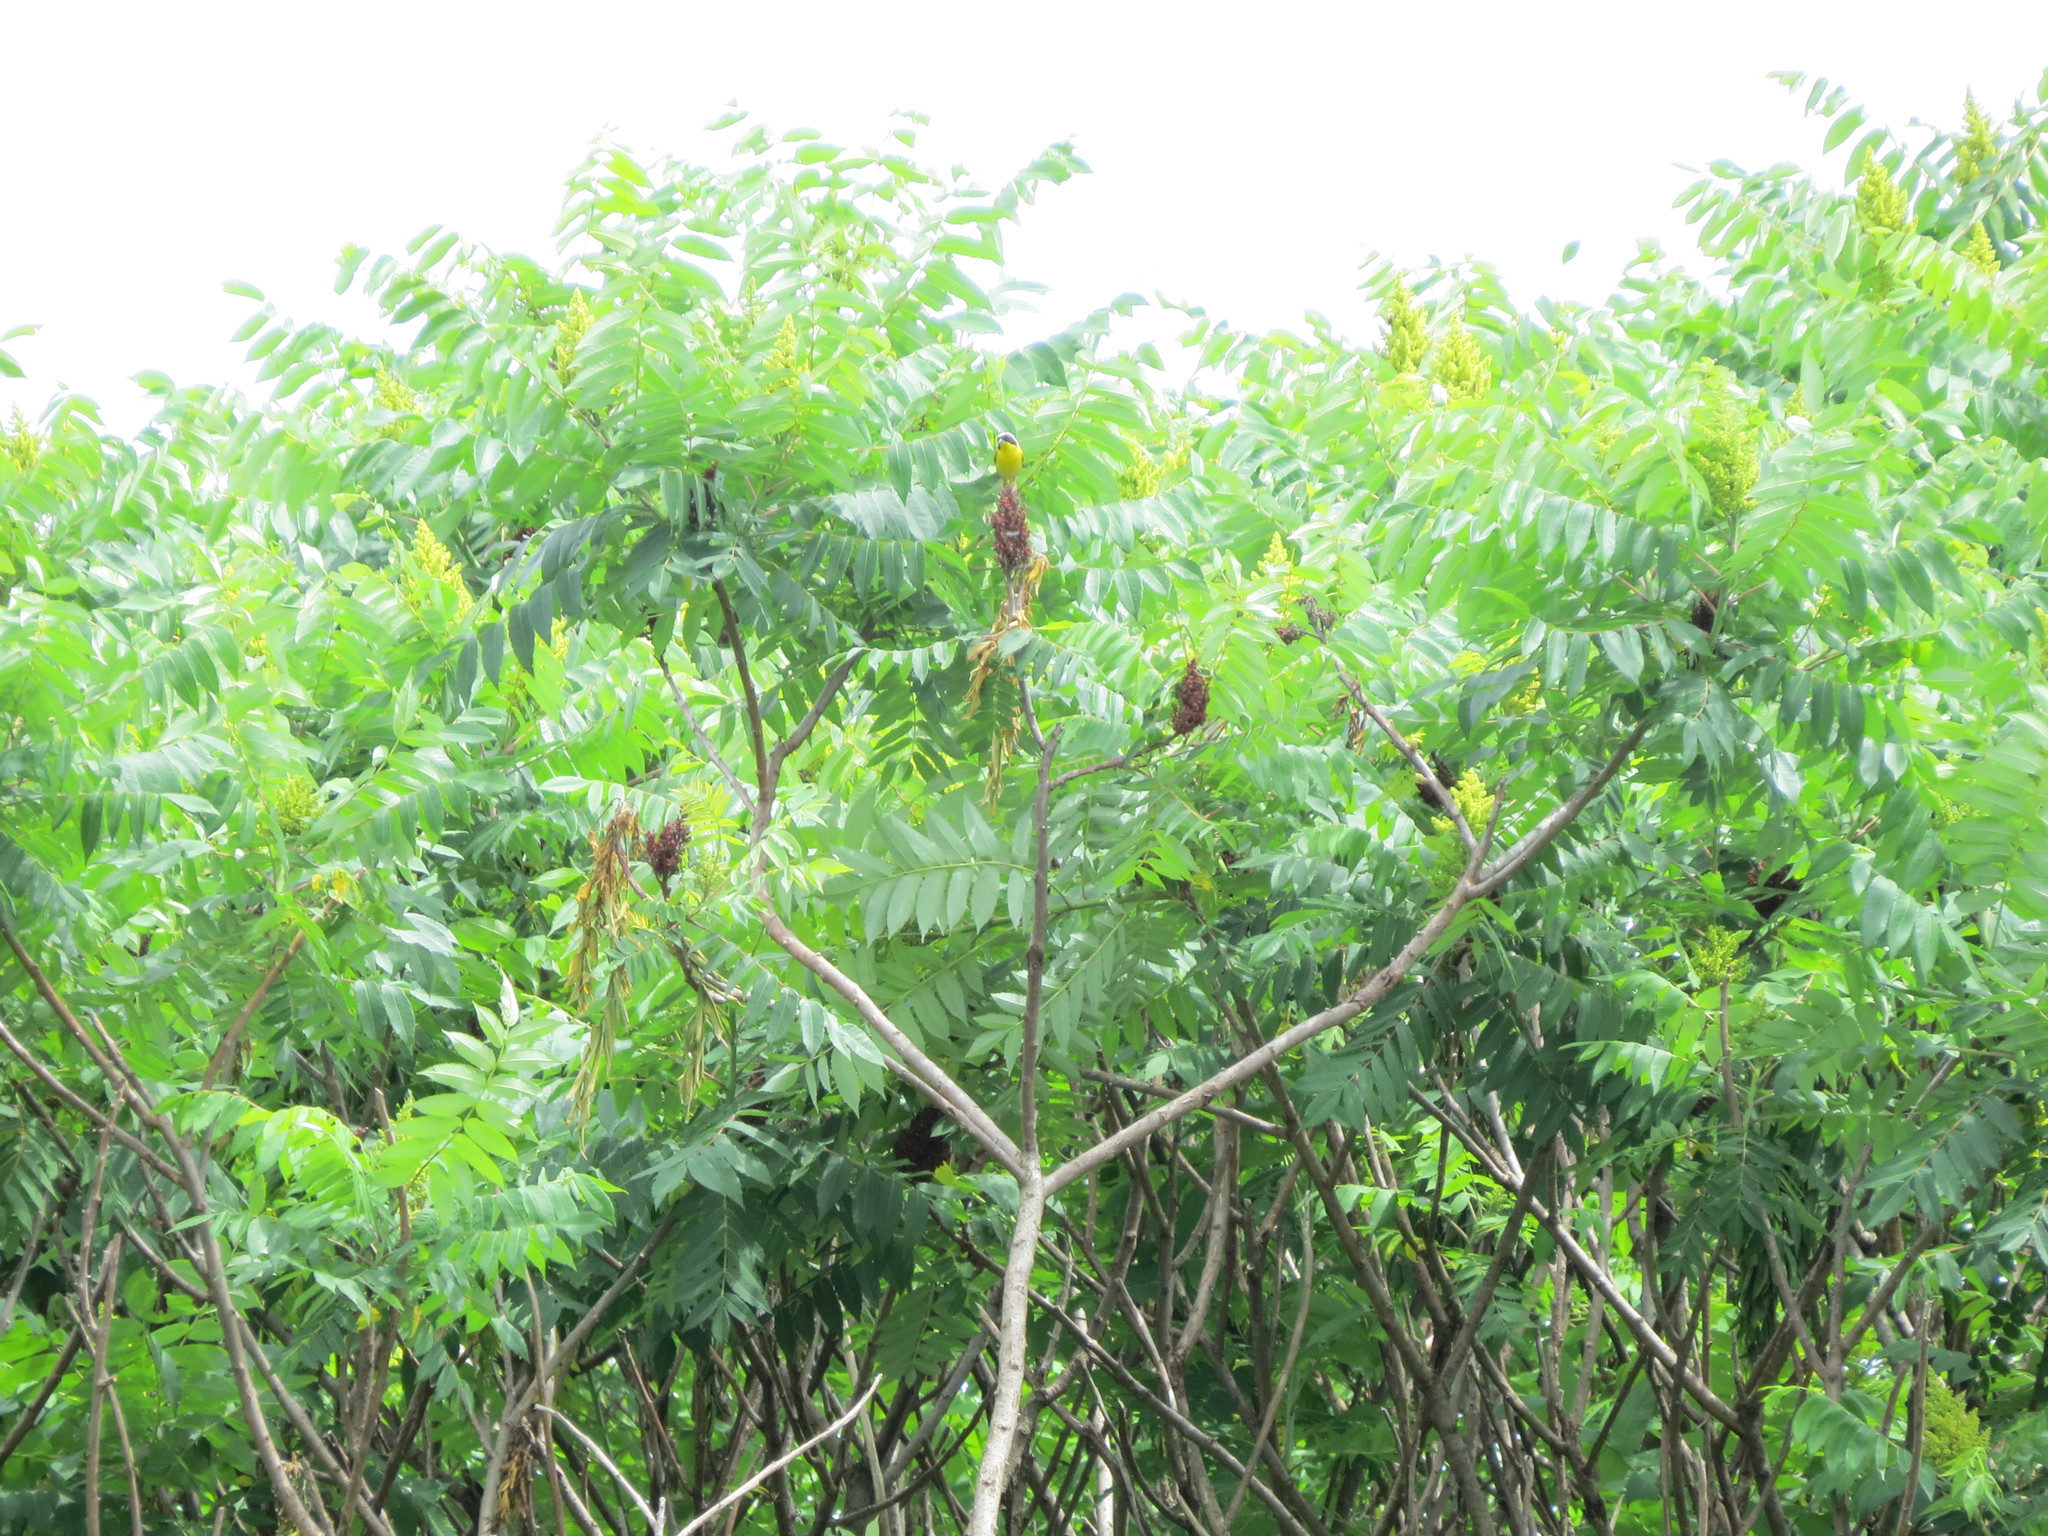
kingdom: Animalia
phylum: Chordata
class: Aves
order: Passeriformes
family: Parulidae
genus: Geothlypis
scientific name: Geothlypis trichas
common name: Common yellowthroat
